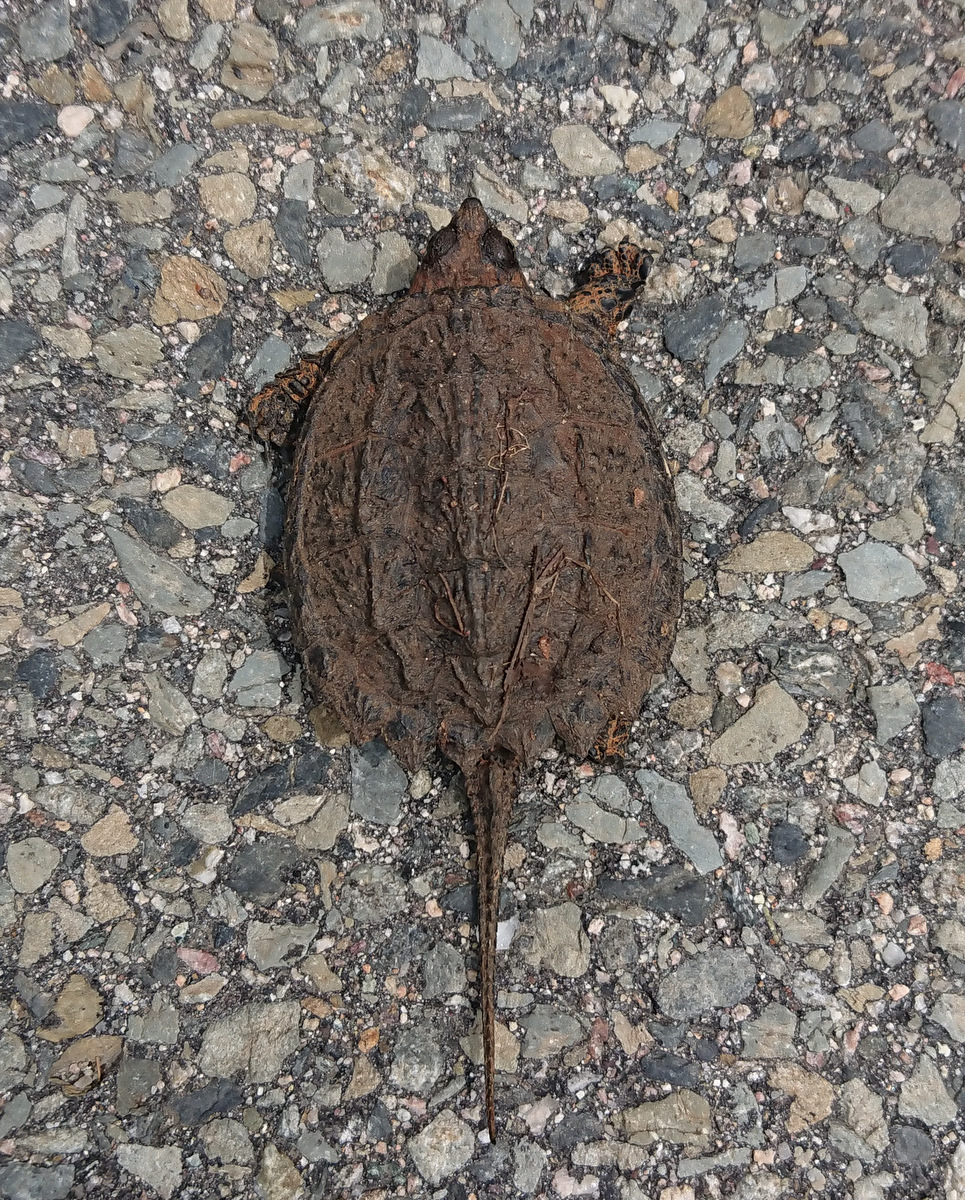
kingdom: Animalia
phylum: Chordata
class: Testudines
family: Chelydridae
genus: Chelydra
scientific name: Chelydra serpentina
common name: Common snapping turtle
